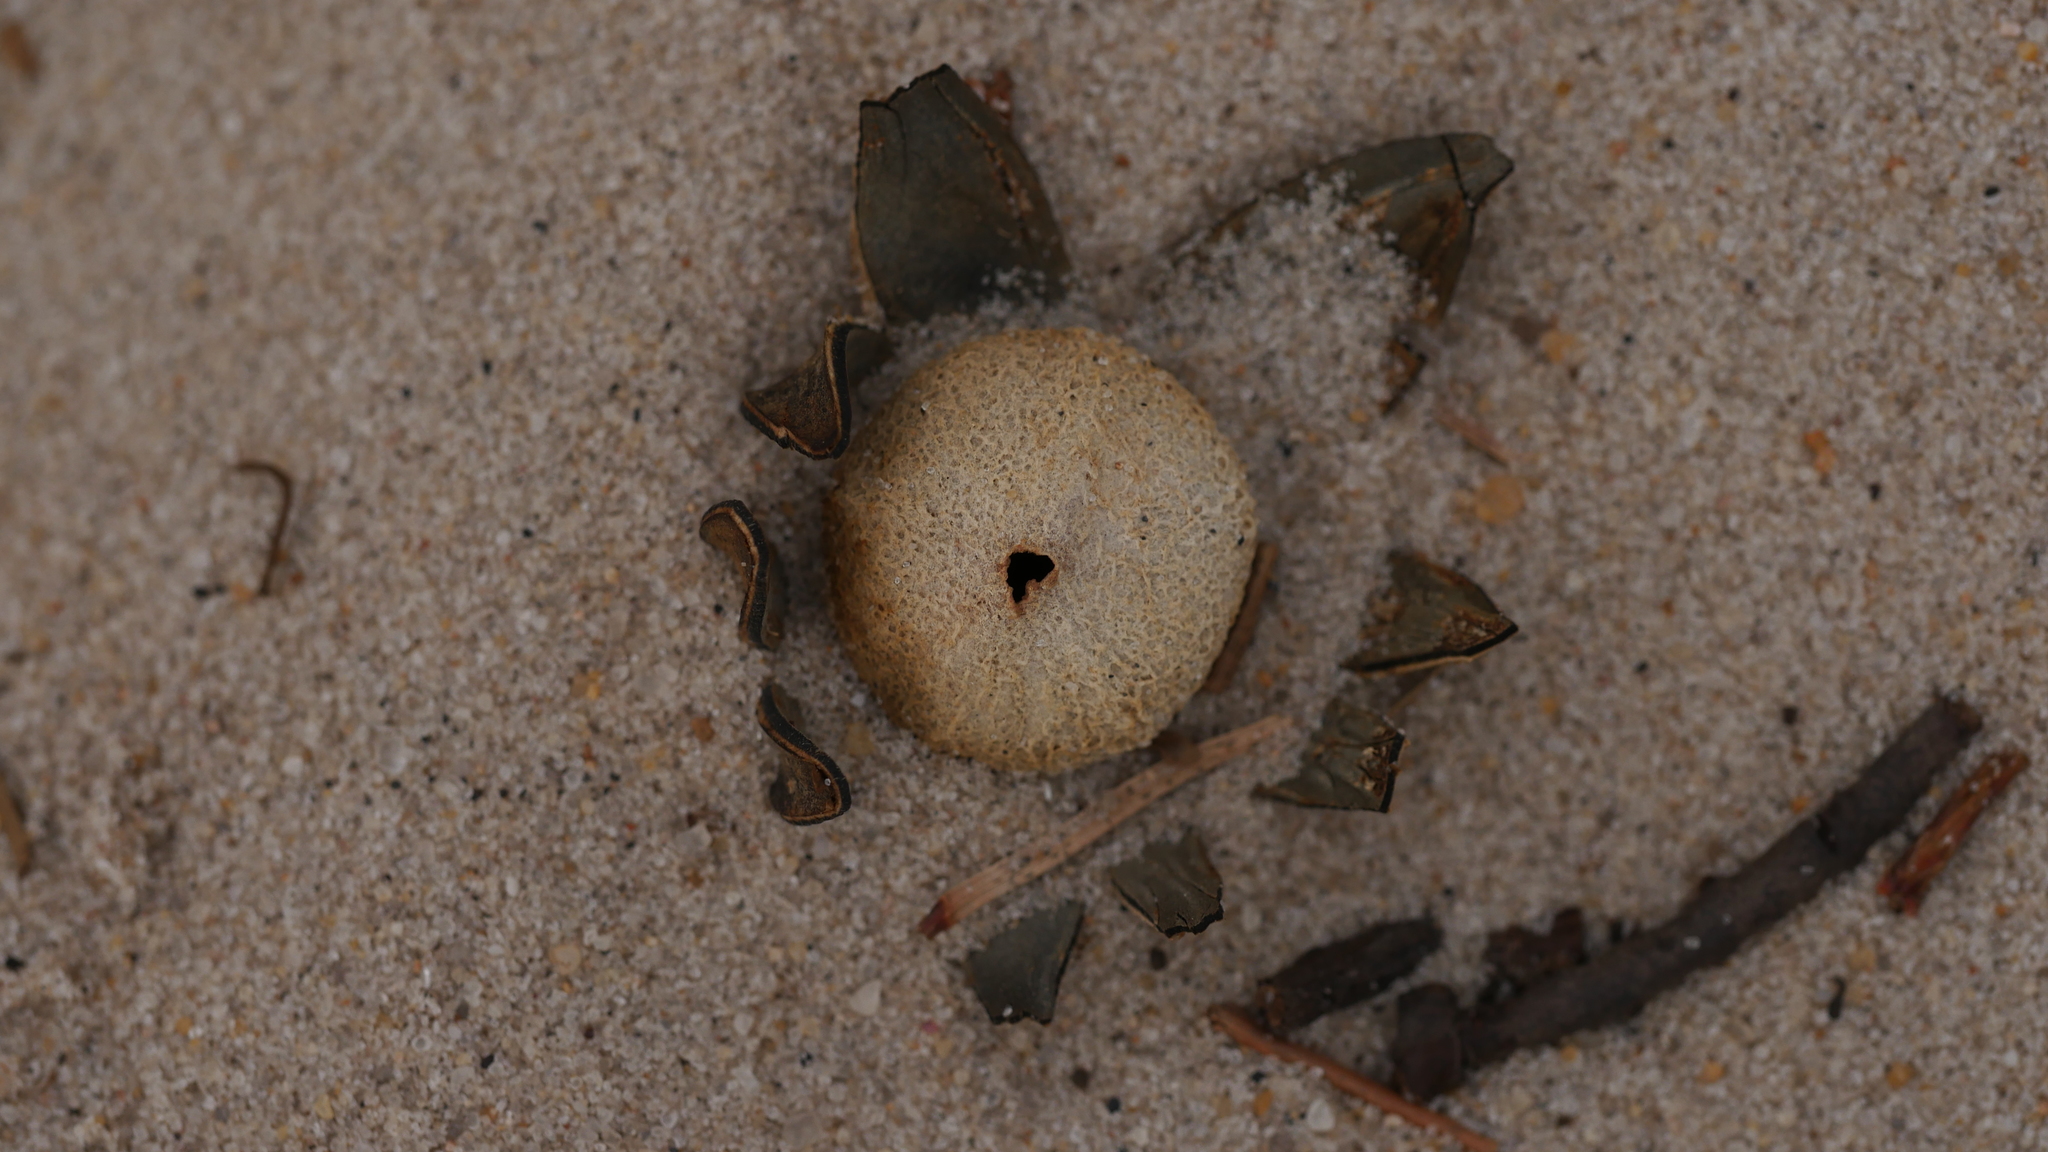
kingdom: Fungi
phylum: Basidiomycota
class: Agaricomycetes
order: Boletales
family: Diplocystidiaceae
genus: Astraeus
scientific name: Astraeus smithii
